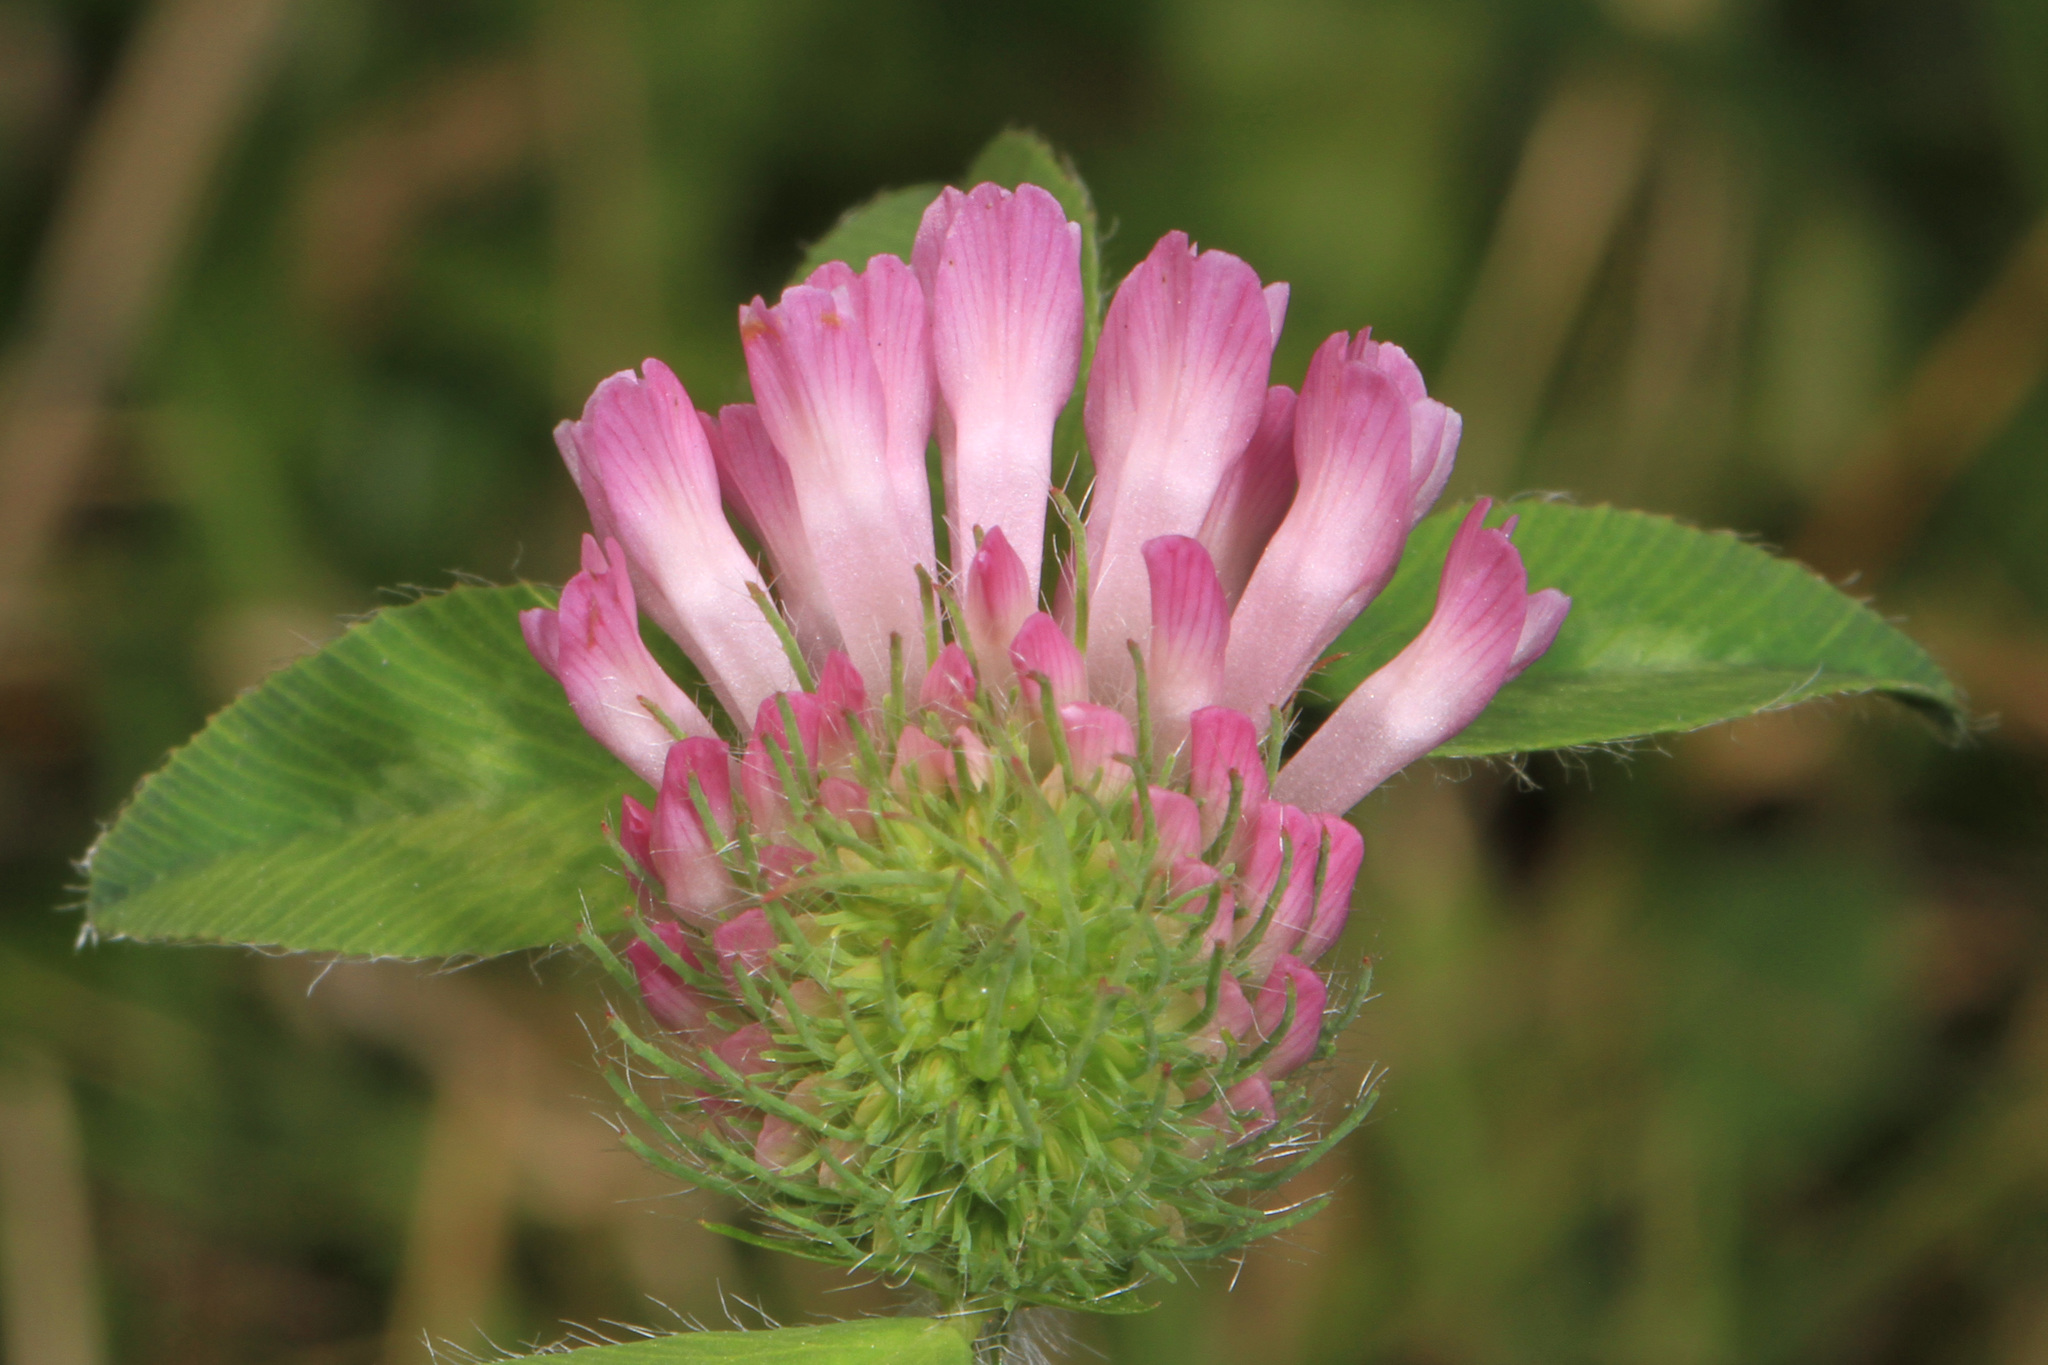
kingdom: Plantae
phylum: Tracheophyta
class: Magnoliopsida
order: Fabales
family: Fabaceae
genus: Trifolium
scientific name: Trifolium pratense
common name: Red clover
